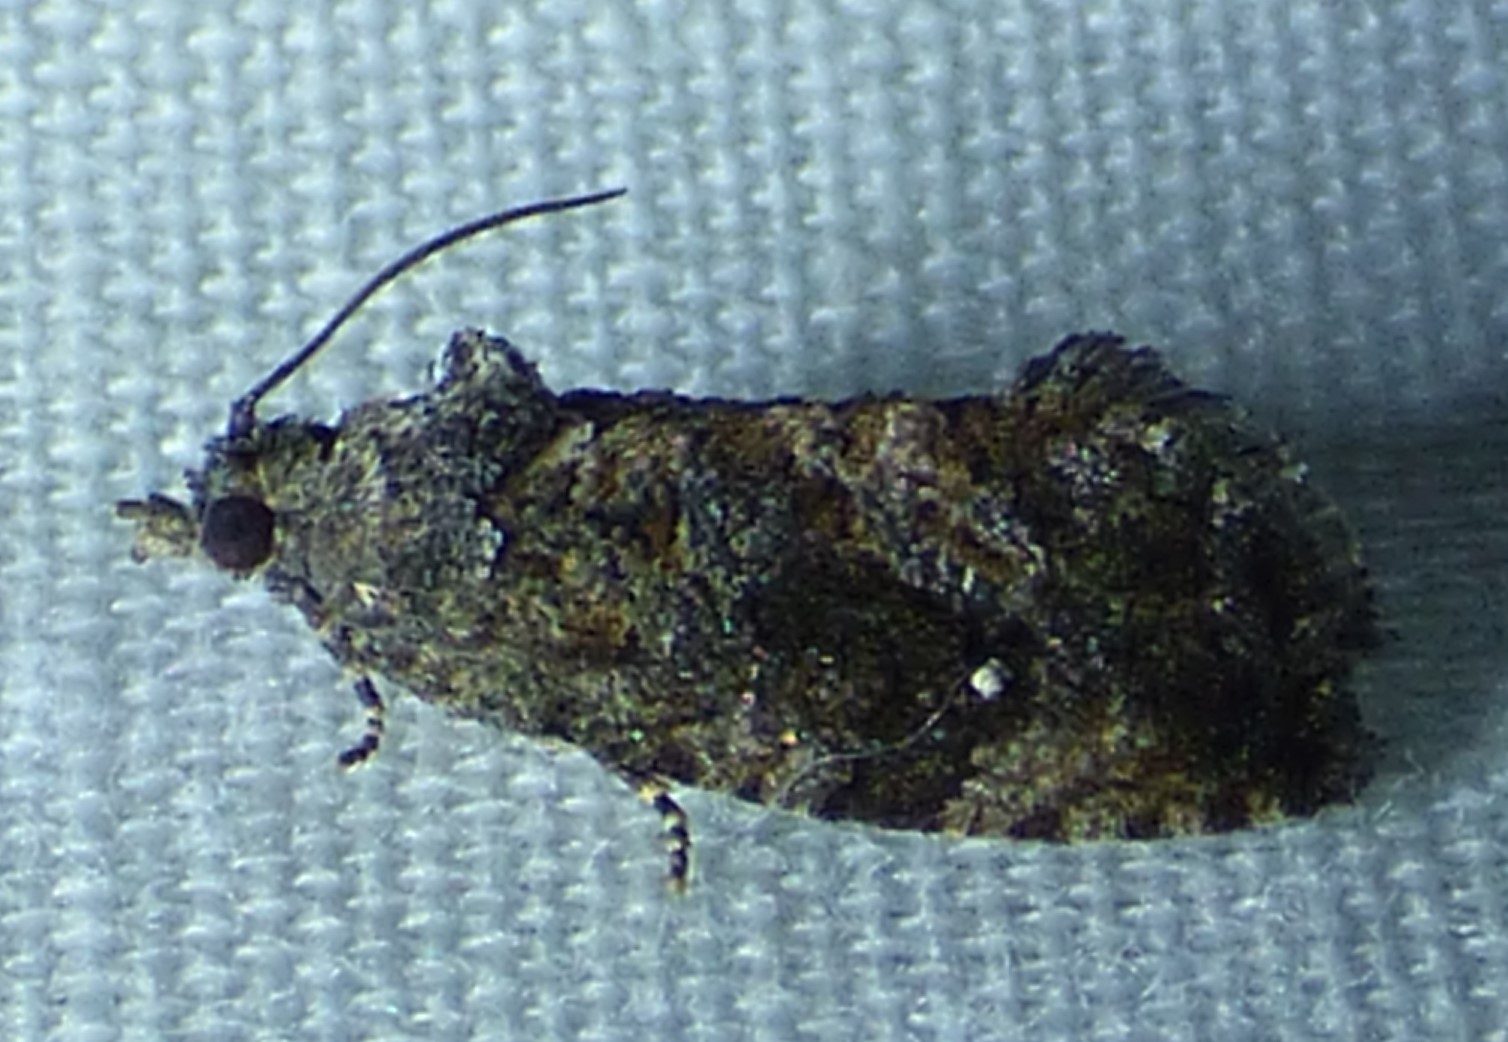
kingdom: Animalia
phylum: Arthropoda
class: Insecta
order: Lepidoptera
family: Tortricidae
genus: Gymnandrosoma
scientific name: Gymnandrosoma punctidiscanum
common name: Dotted ecdytolopha moth
